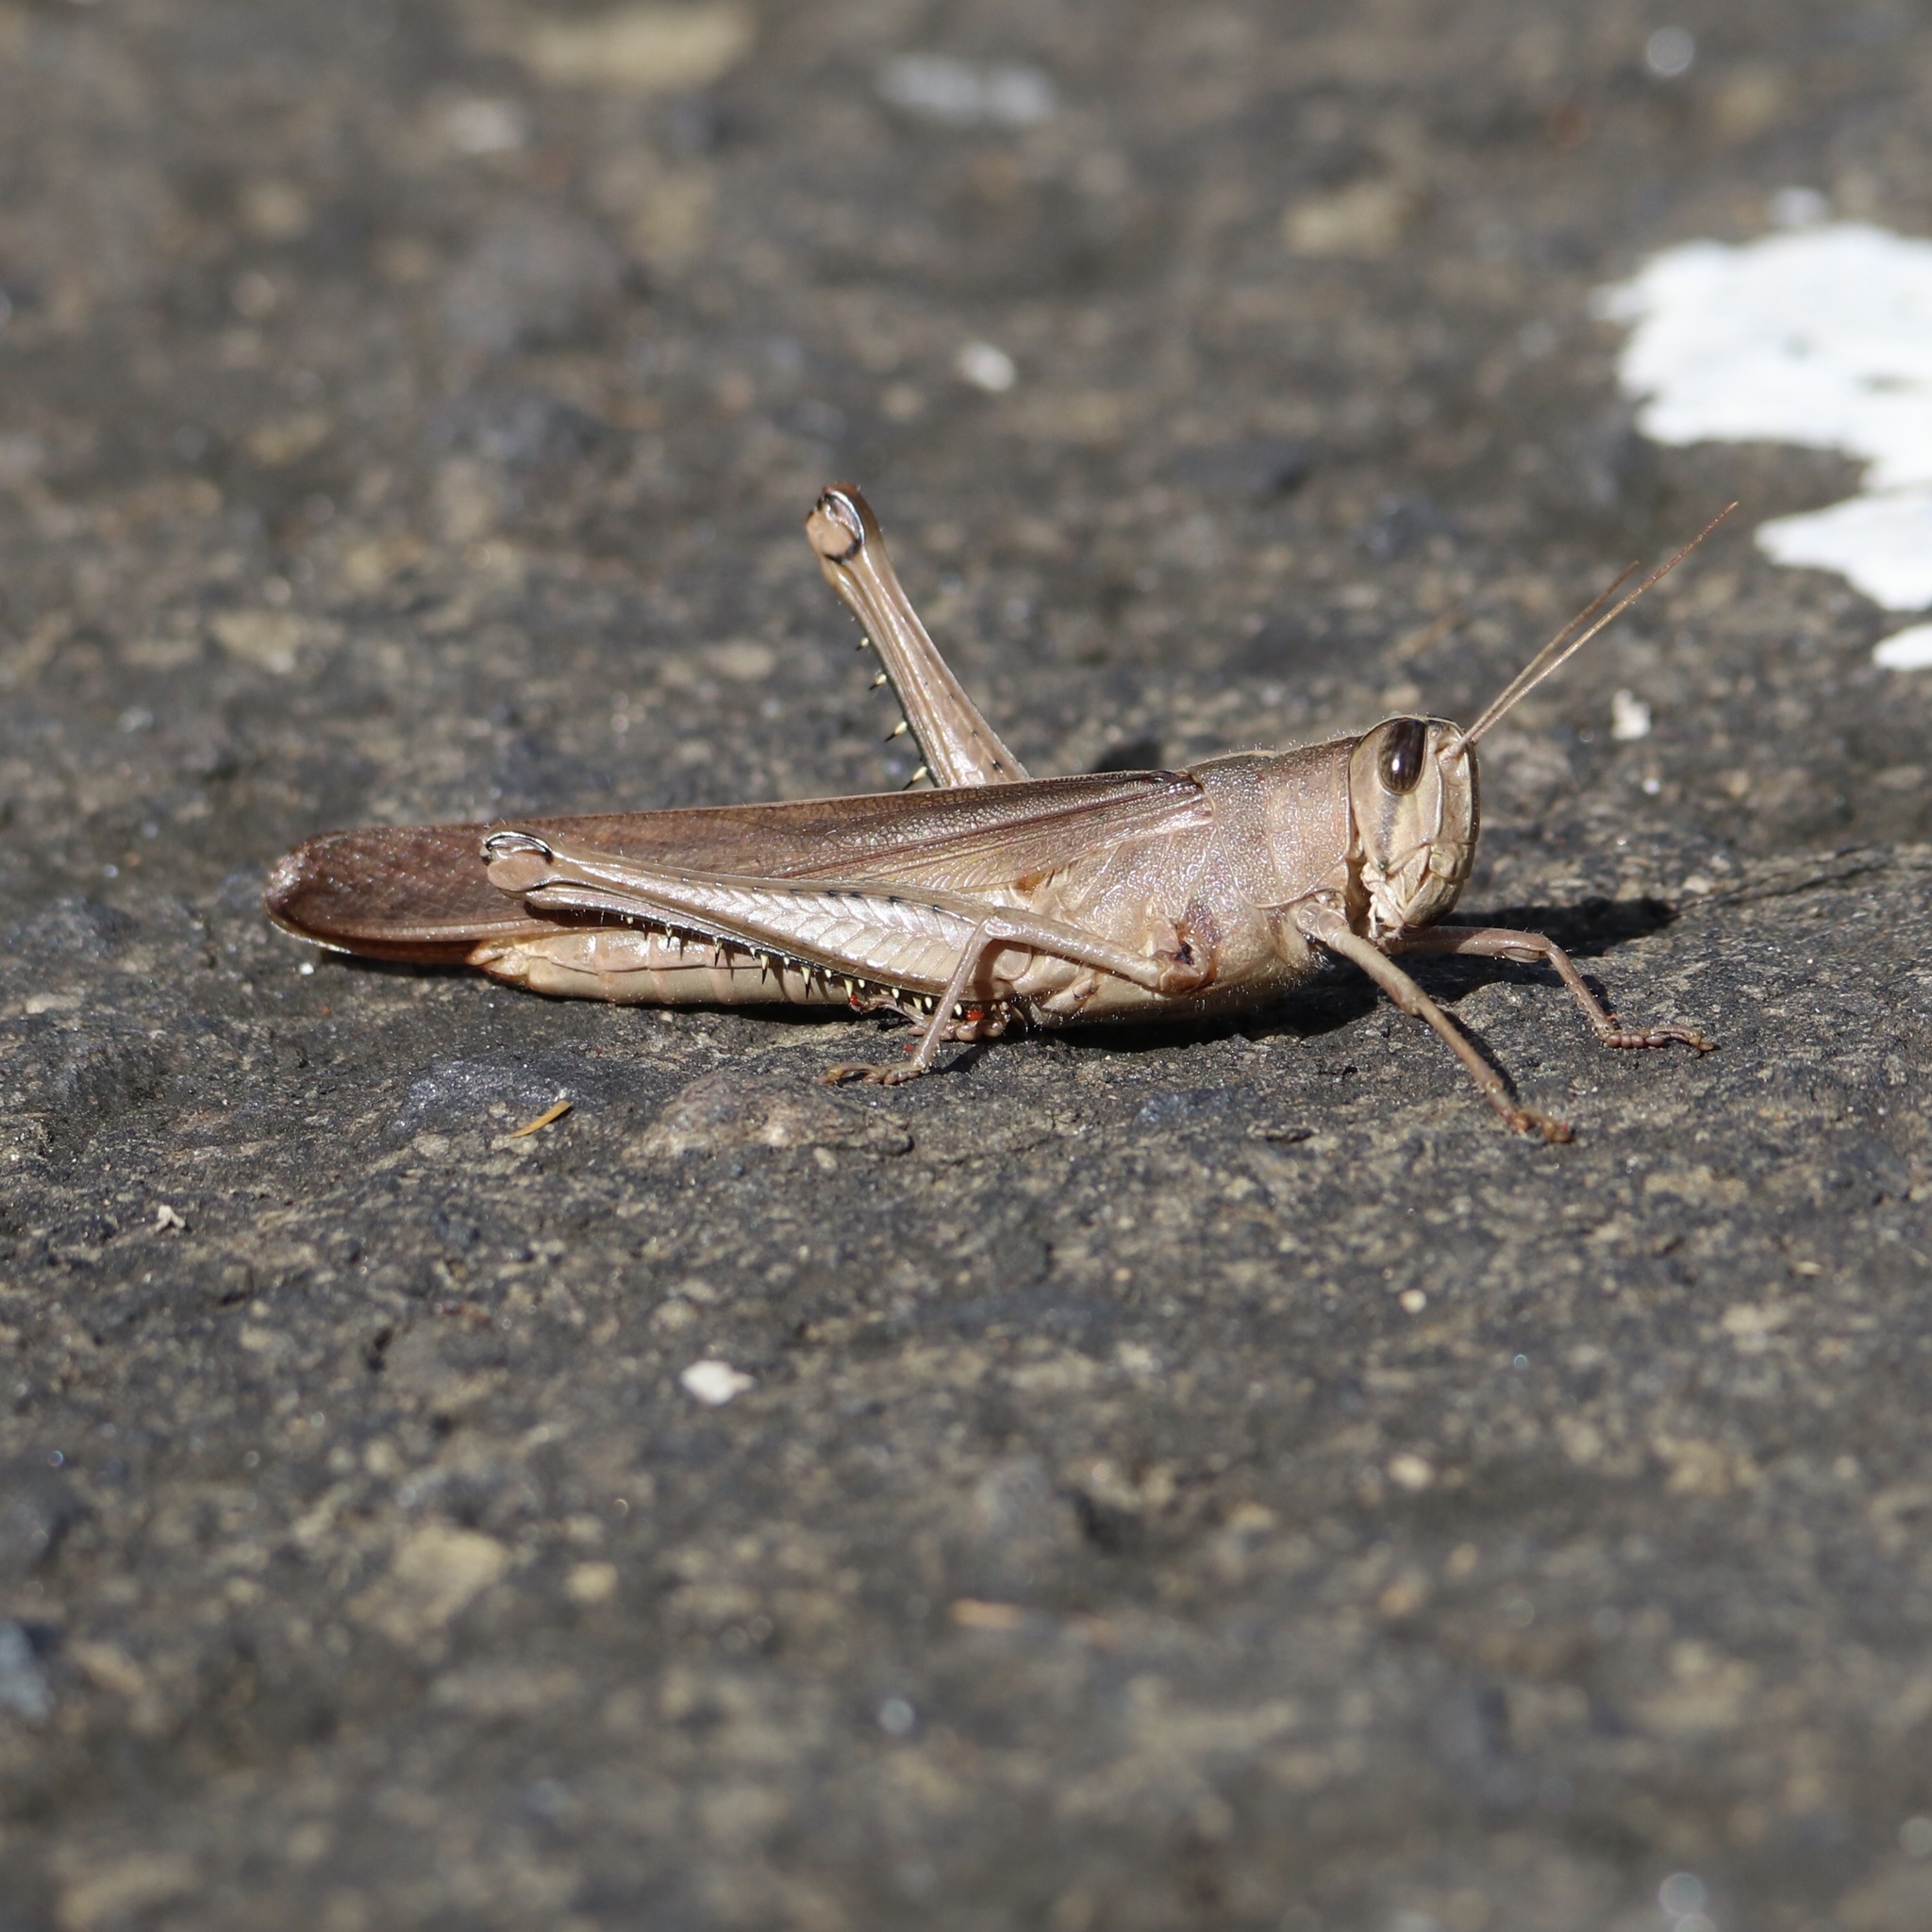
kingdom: Animalia
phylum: Arthropoda
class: Insecta
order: Orthoptera
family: Acrididae
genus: Schistocerca
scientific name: Schistocerca nitens
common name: Vagrant grasshopper
